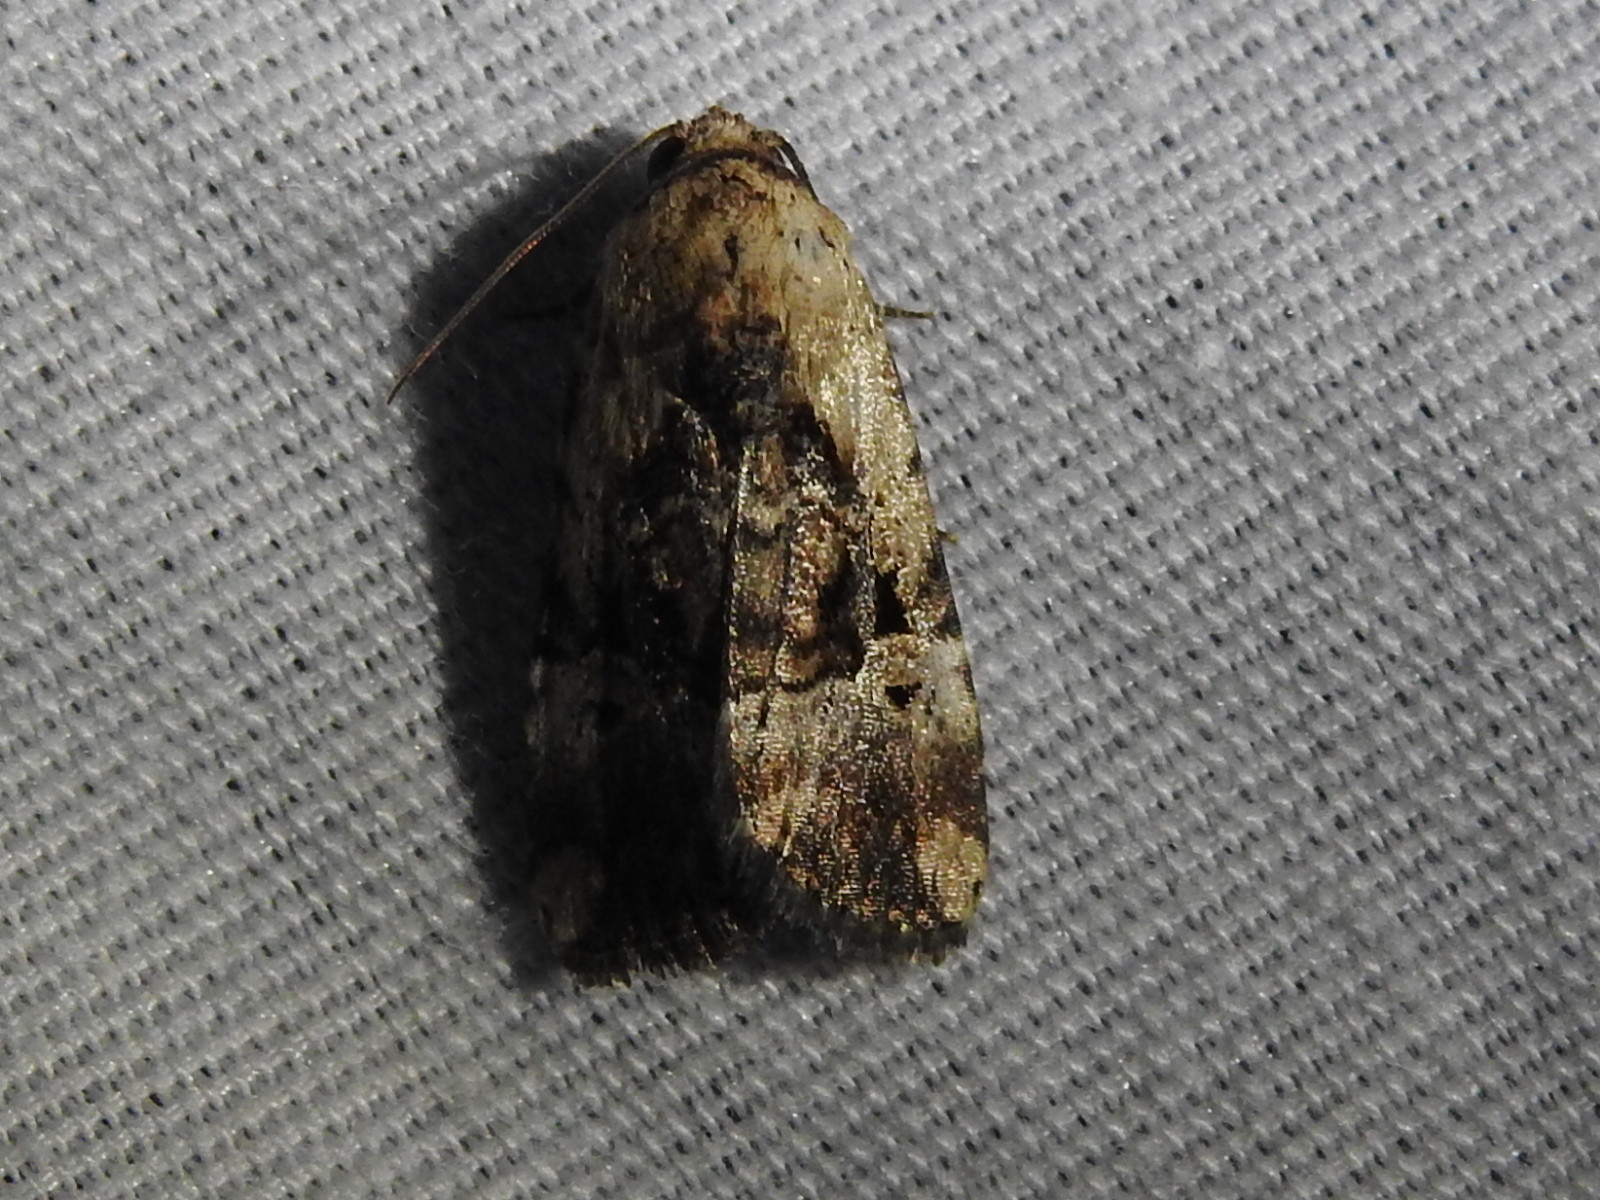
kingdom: Animalia
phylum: Arthropoda
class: Insecta
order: Lepidoptera
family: Noctuidae
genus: Elaphria
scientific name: Elaphria chalcedonia
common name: Chalcedony midget
